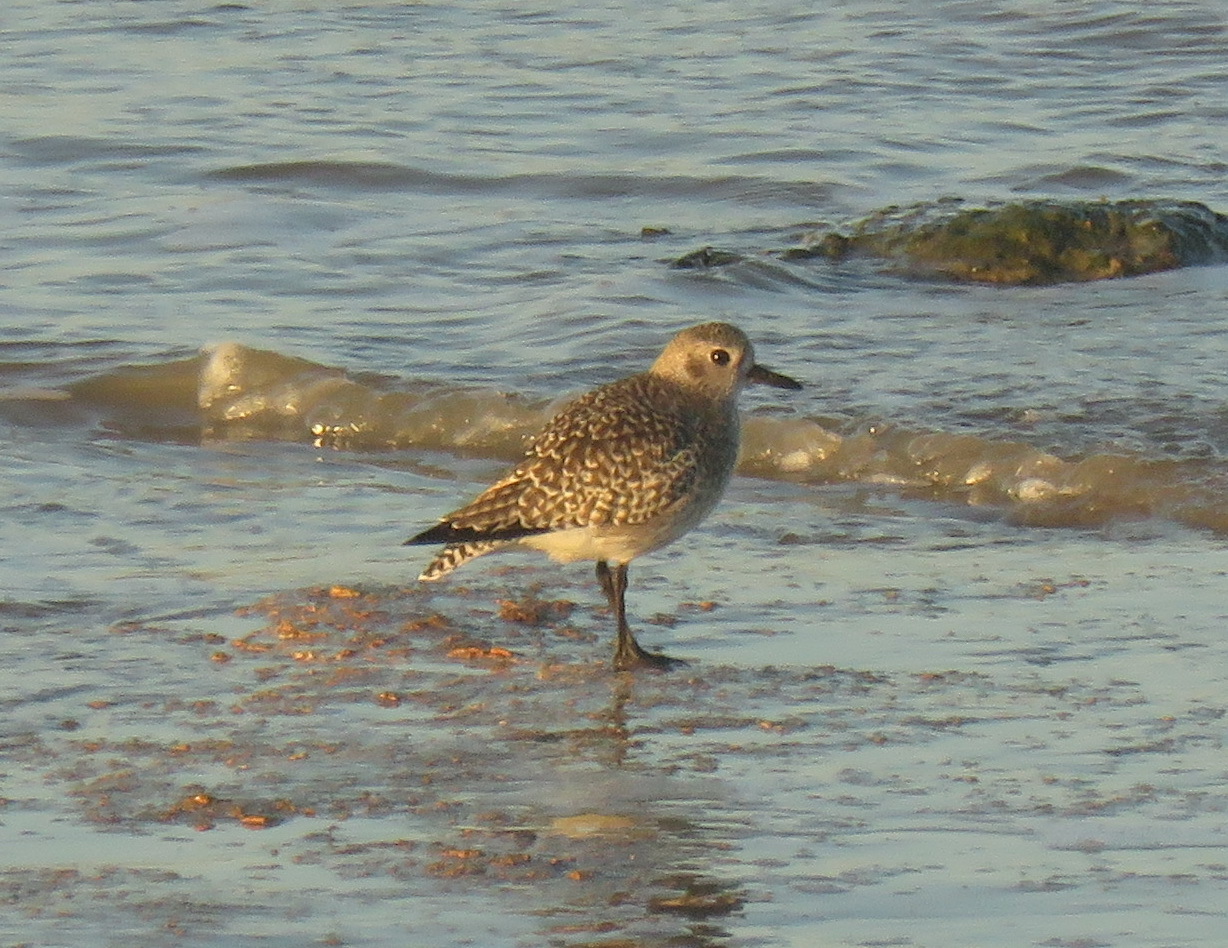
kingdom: Animalia
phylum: Chordata
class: Aves
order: Charadriiformes
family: Charadriidae
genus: Pluvialis
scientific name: Pluvialis squatarola
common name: Grey plover
